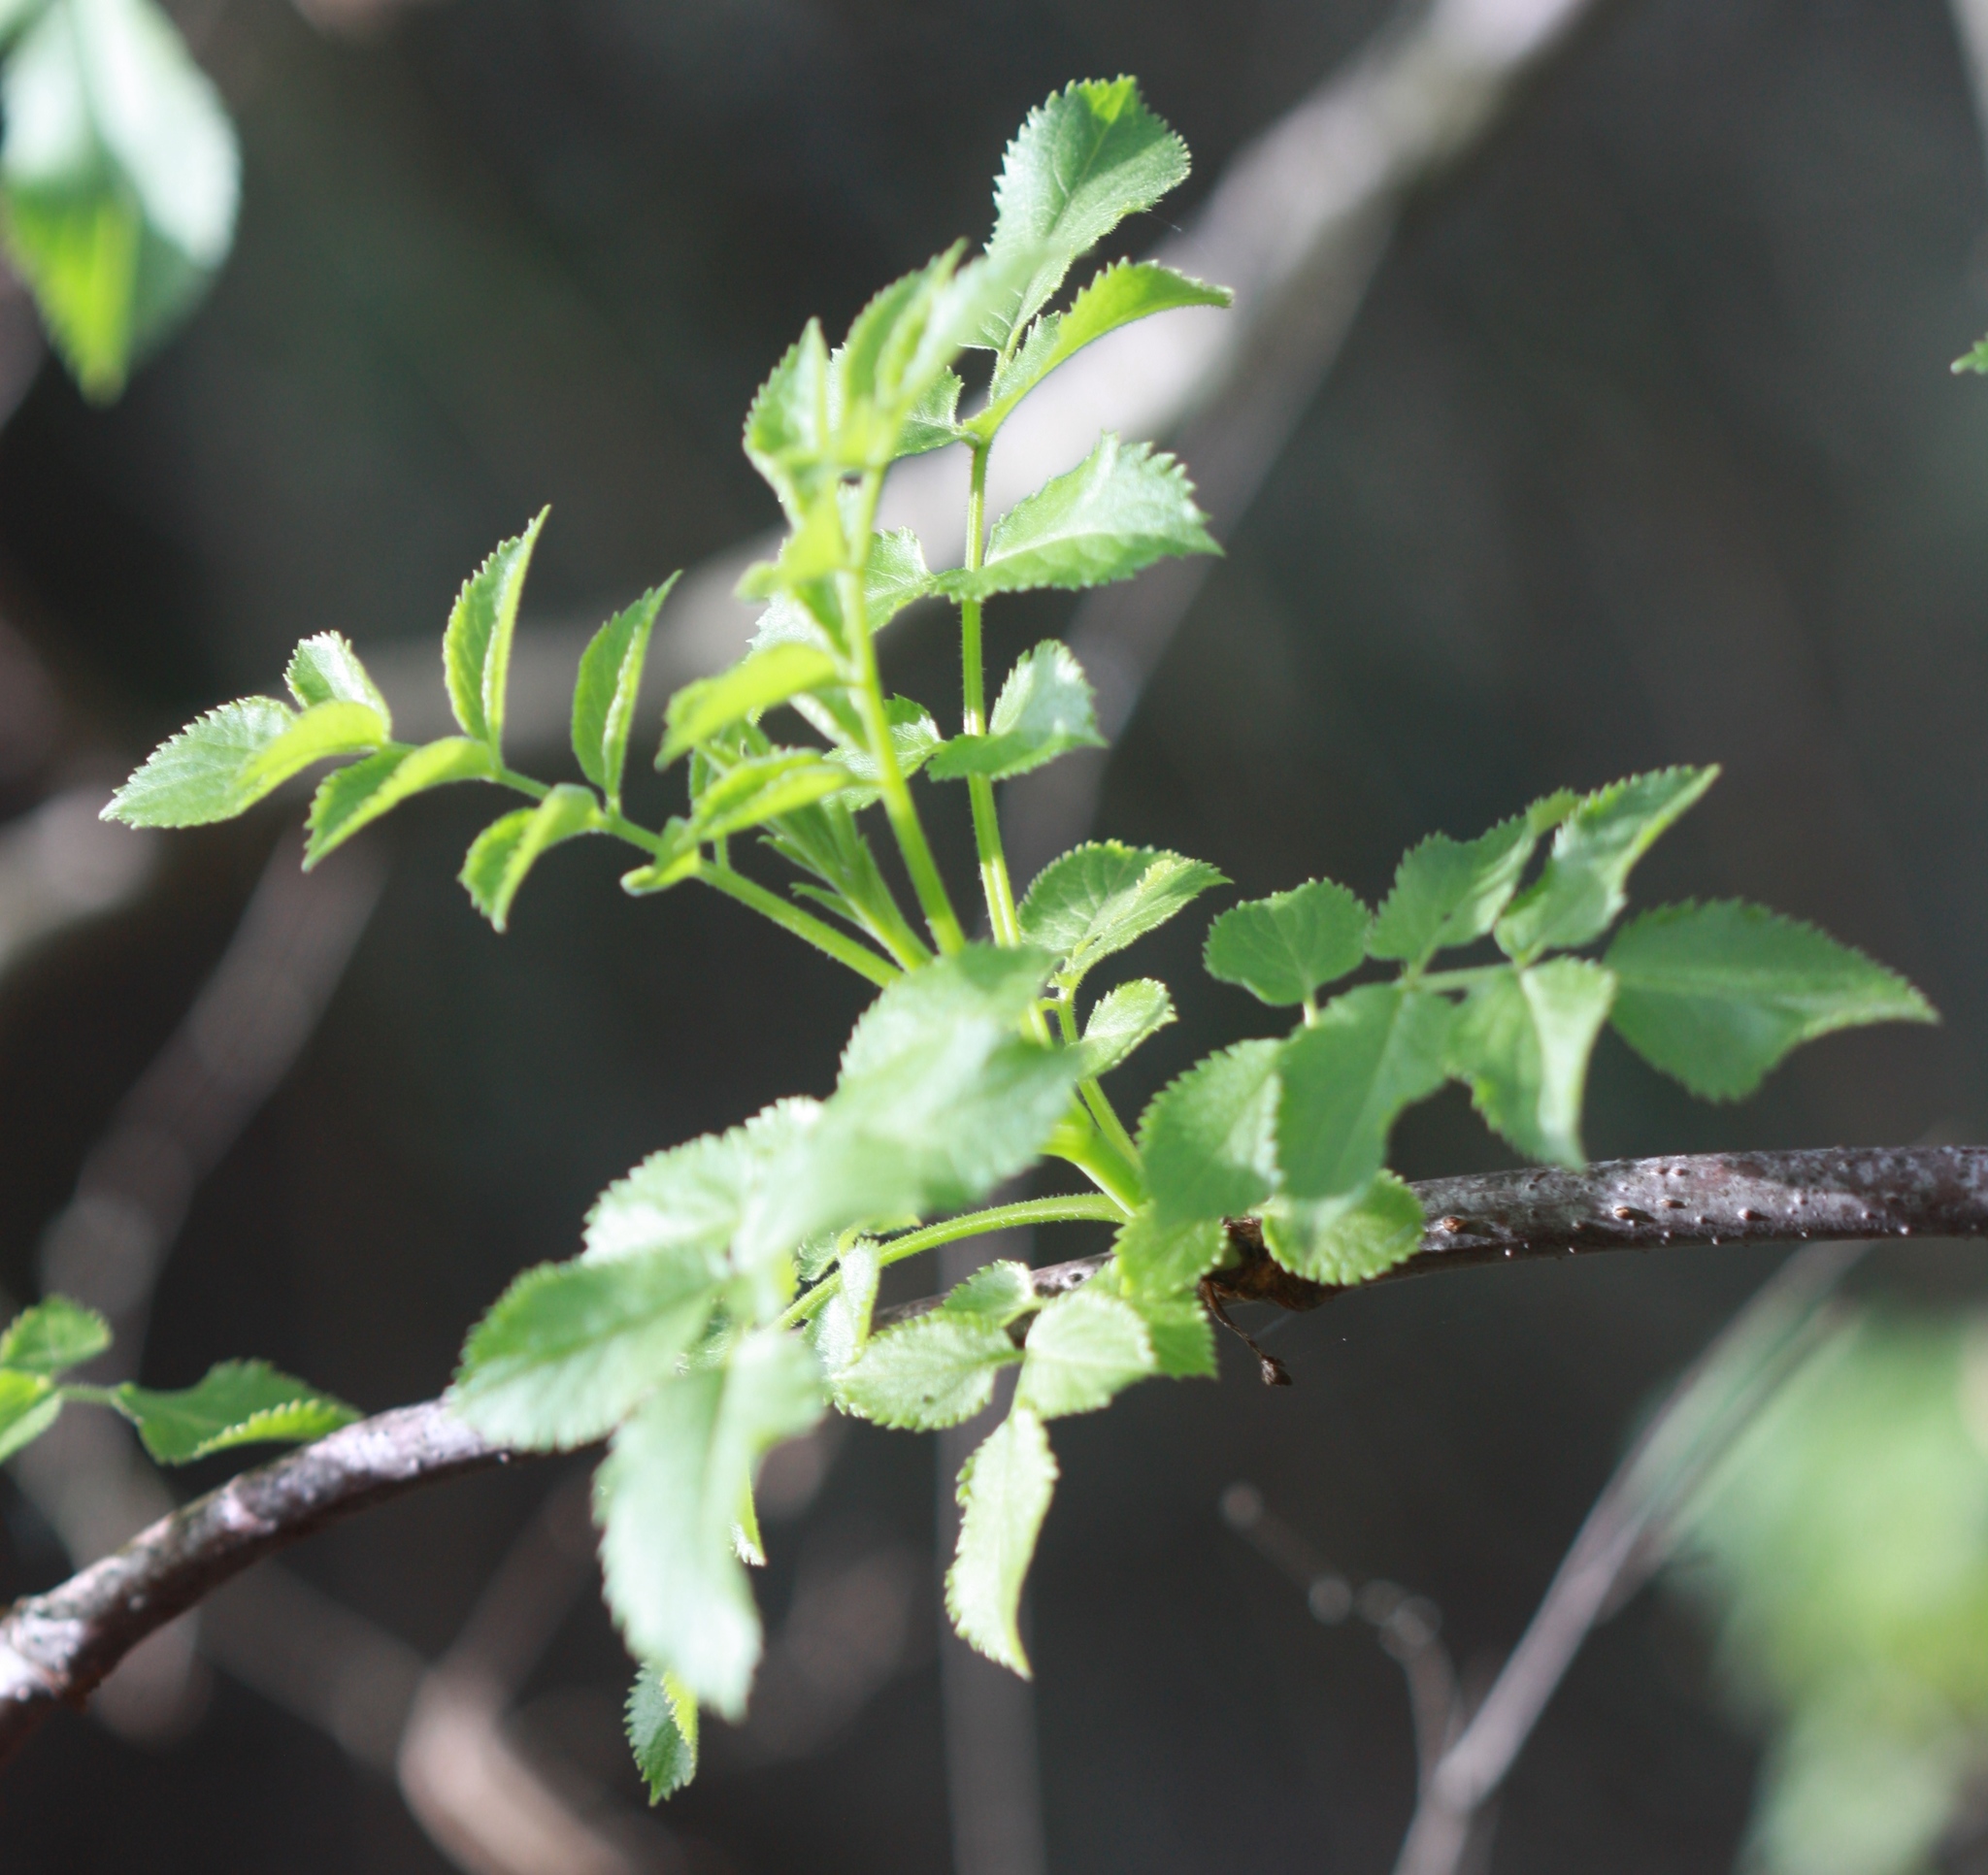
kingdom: Plantae
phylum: Tracheophyta
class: Magnoliopsida
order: Dipsacales
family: Viburnaceae
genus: Sambucus
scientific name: Sambucus cerulea
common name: Blue elder
